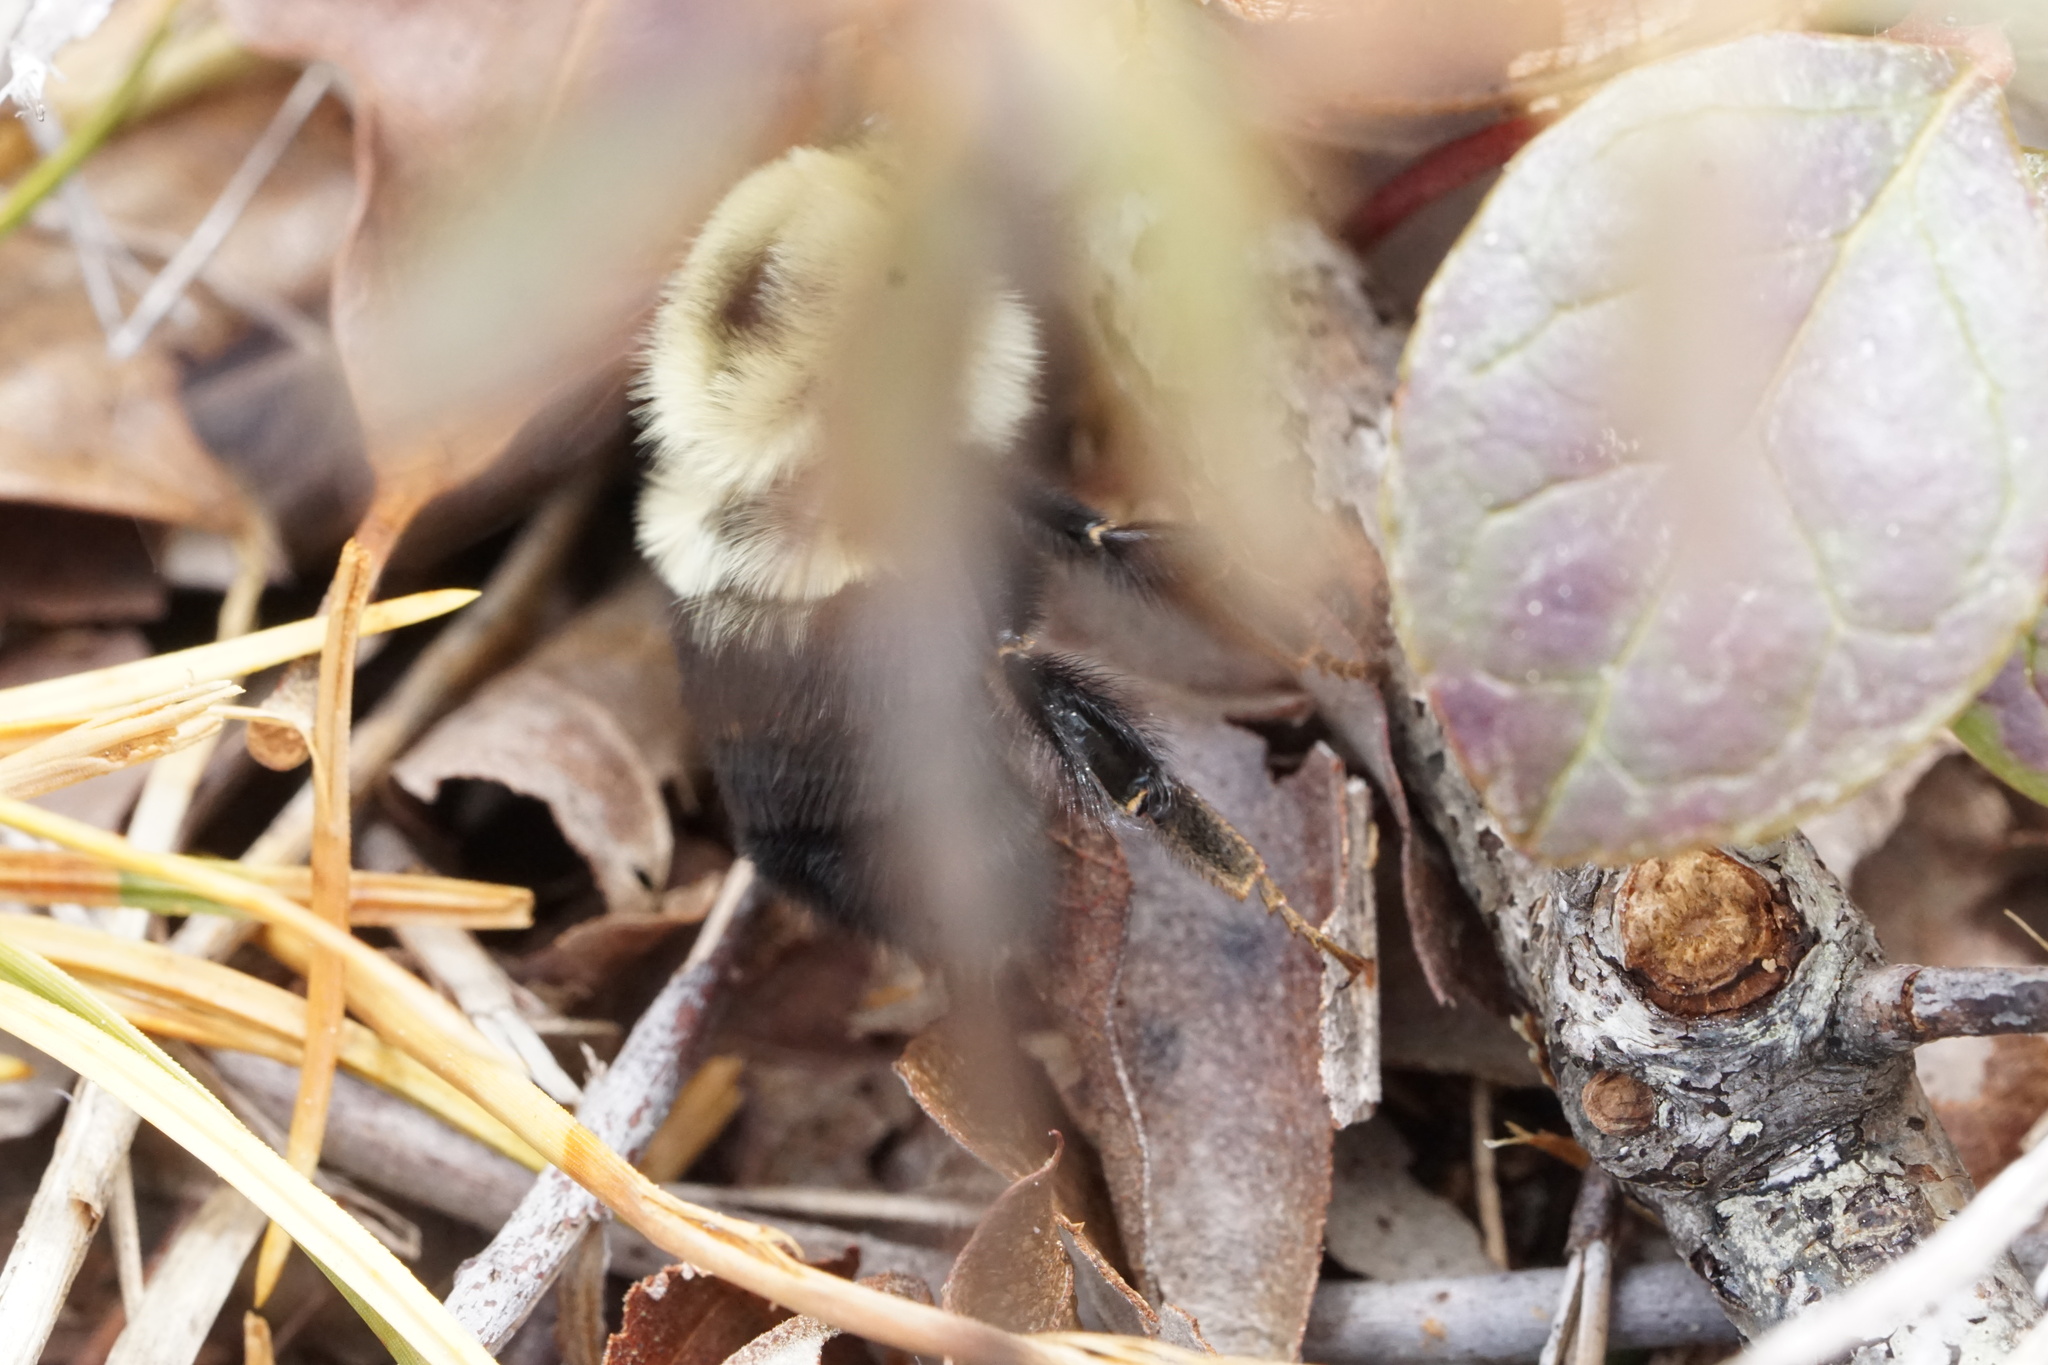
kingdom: Animalia
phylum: Arthropoda
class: Insecta
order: Hymenoptera
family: Apidae
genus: Bombus
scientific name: Bombus bimaculatus
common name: Two-spotted bumble bee
